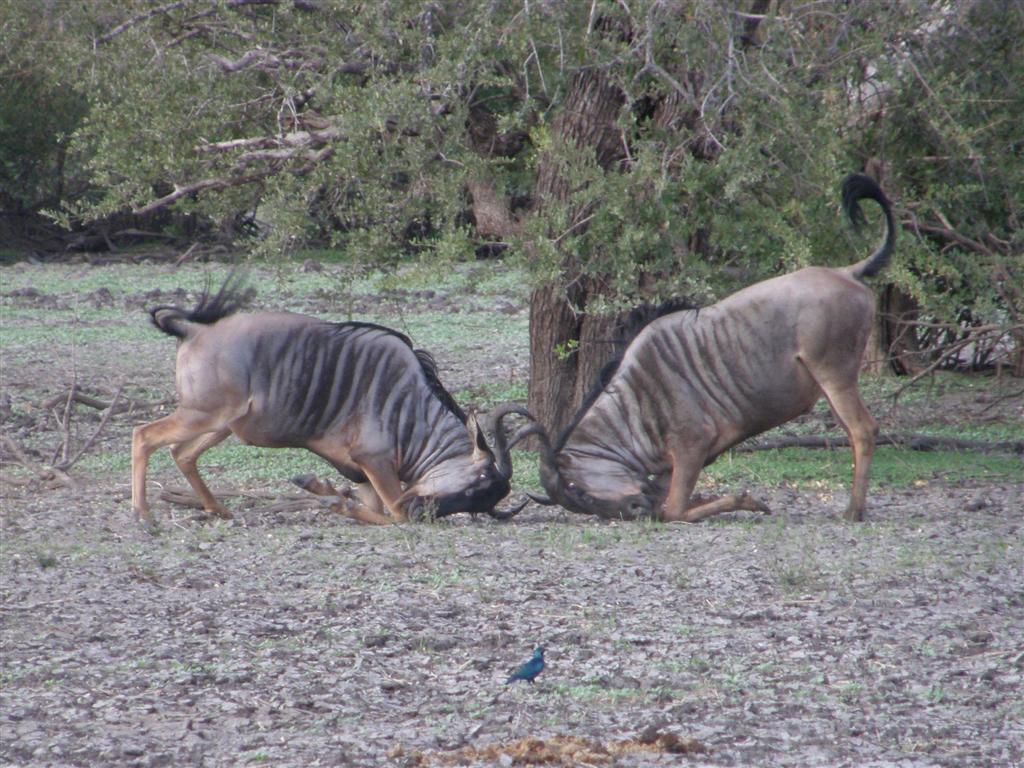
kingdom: Animalia
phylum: Chordata
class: Mammalia
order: Artiodactyla
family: Bovidae
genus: Connochaetes
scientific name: Connochaetes taurinus
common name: Blue wildebeest
